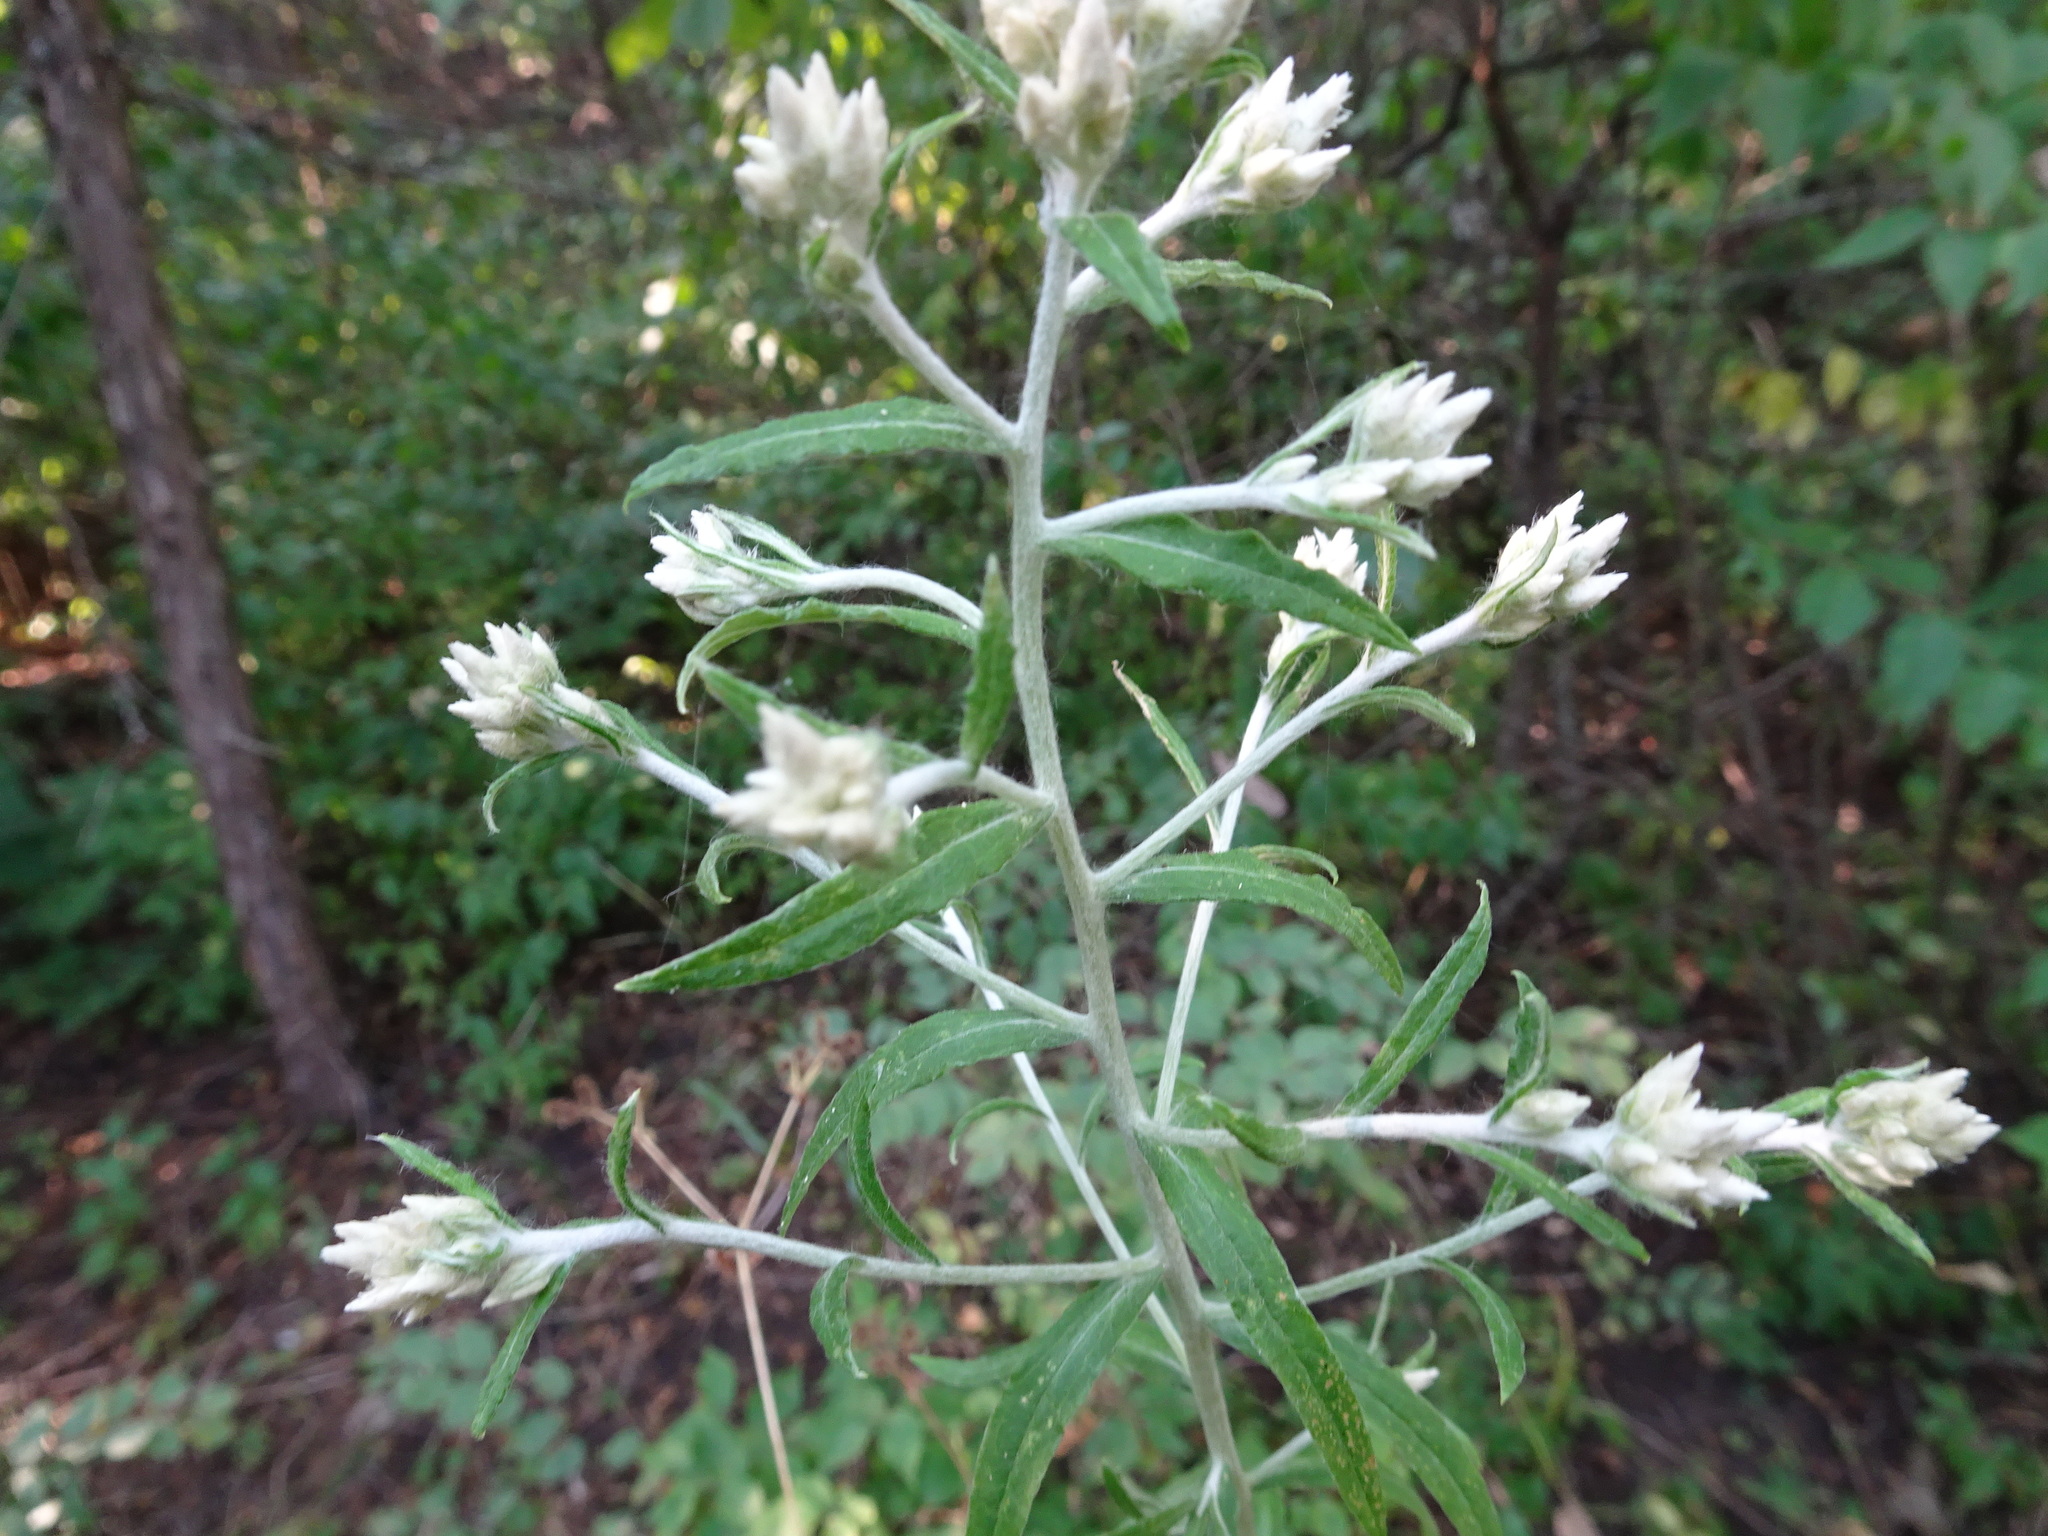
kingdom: Plantae
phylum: Tracheophyta
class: Magnoliopsida
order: Asterales
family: Asteraceae
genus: Pseudognaphalium
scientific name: Pseudognaphalium obtusifolium
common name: Eastern rabbit-tobacco
